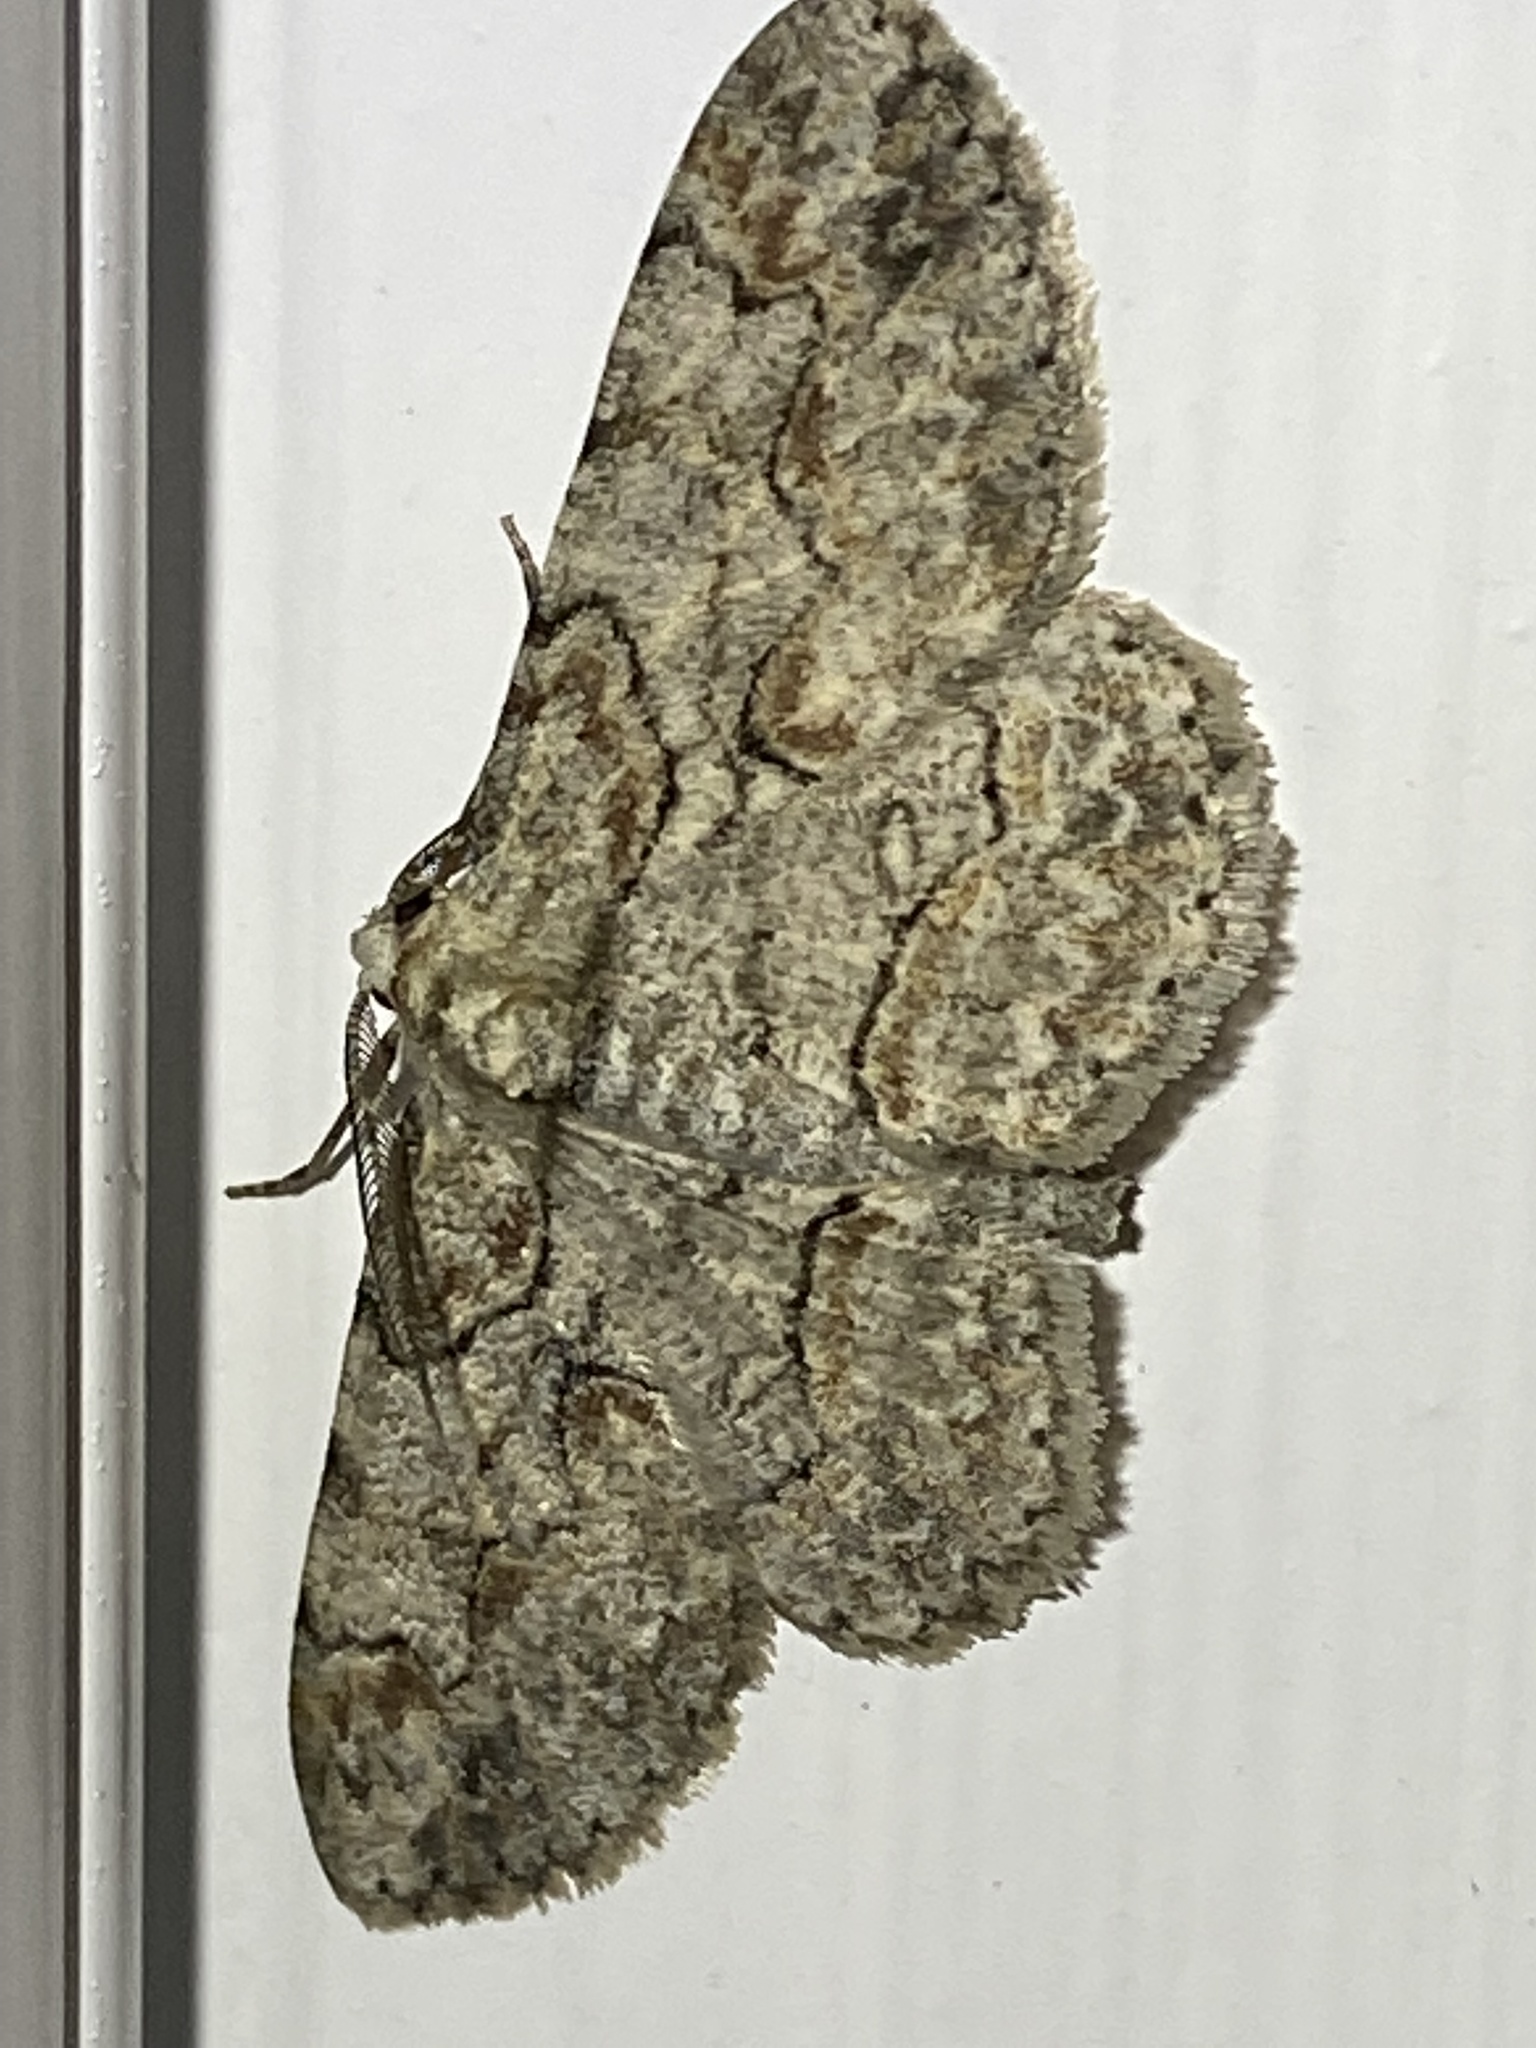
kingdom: Animalia
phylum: Arthropoda
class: Insecta
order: Lepidoptera
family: Geometridae
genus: Iridopsis
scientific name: Iridopsis defectaria
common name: Brown-shaded gray
